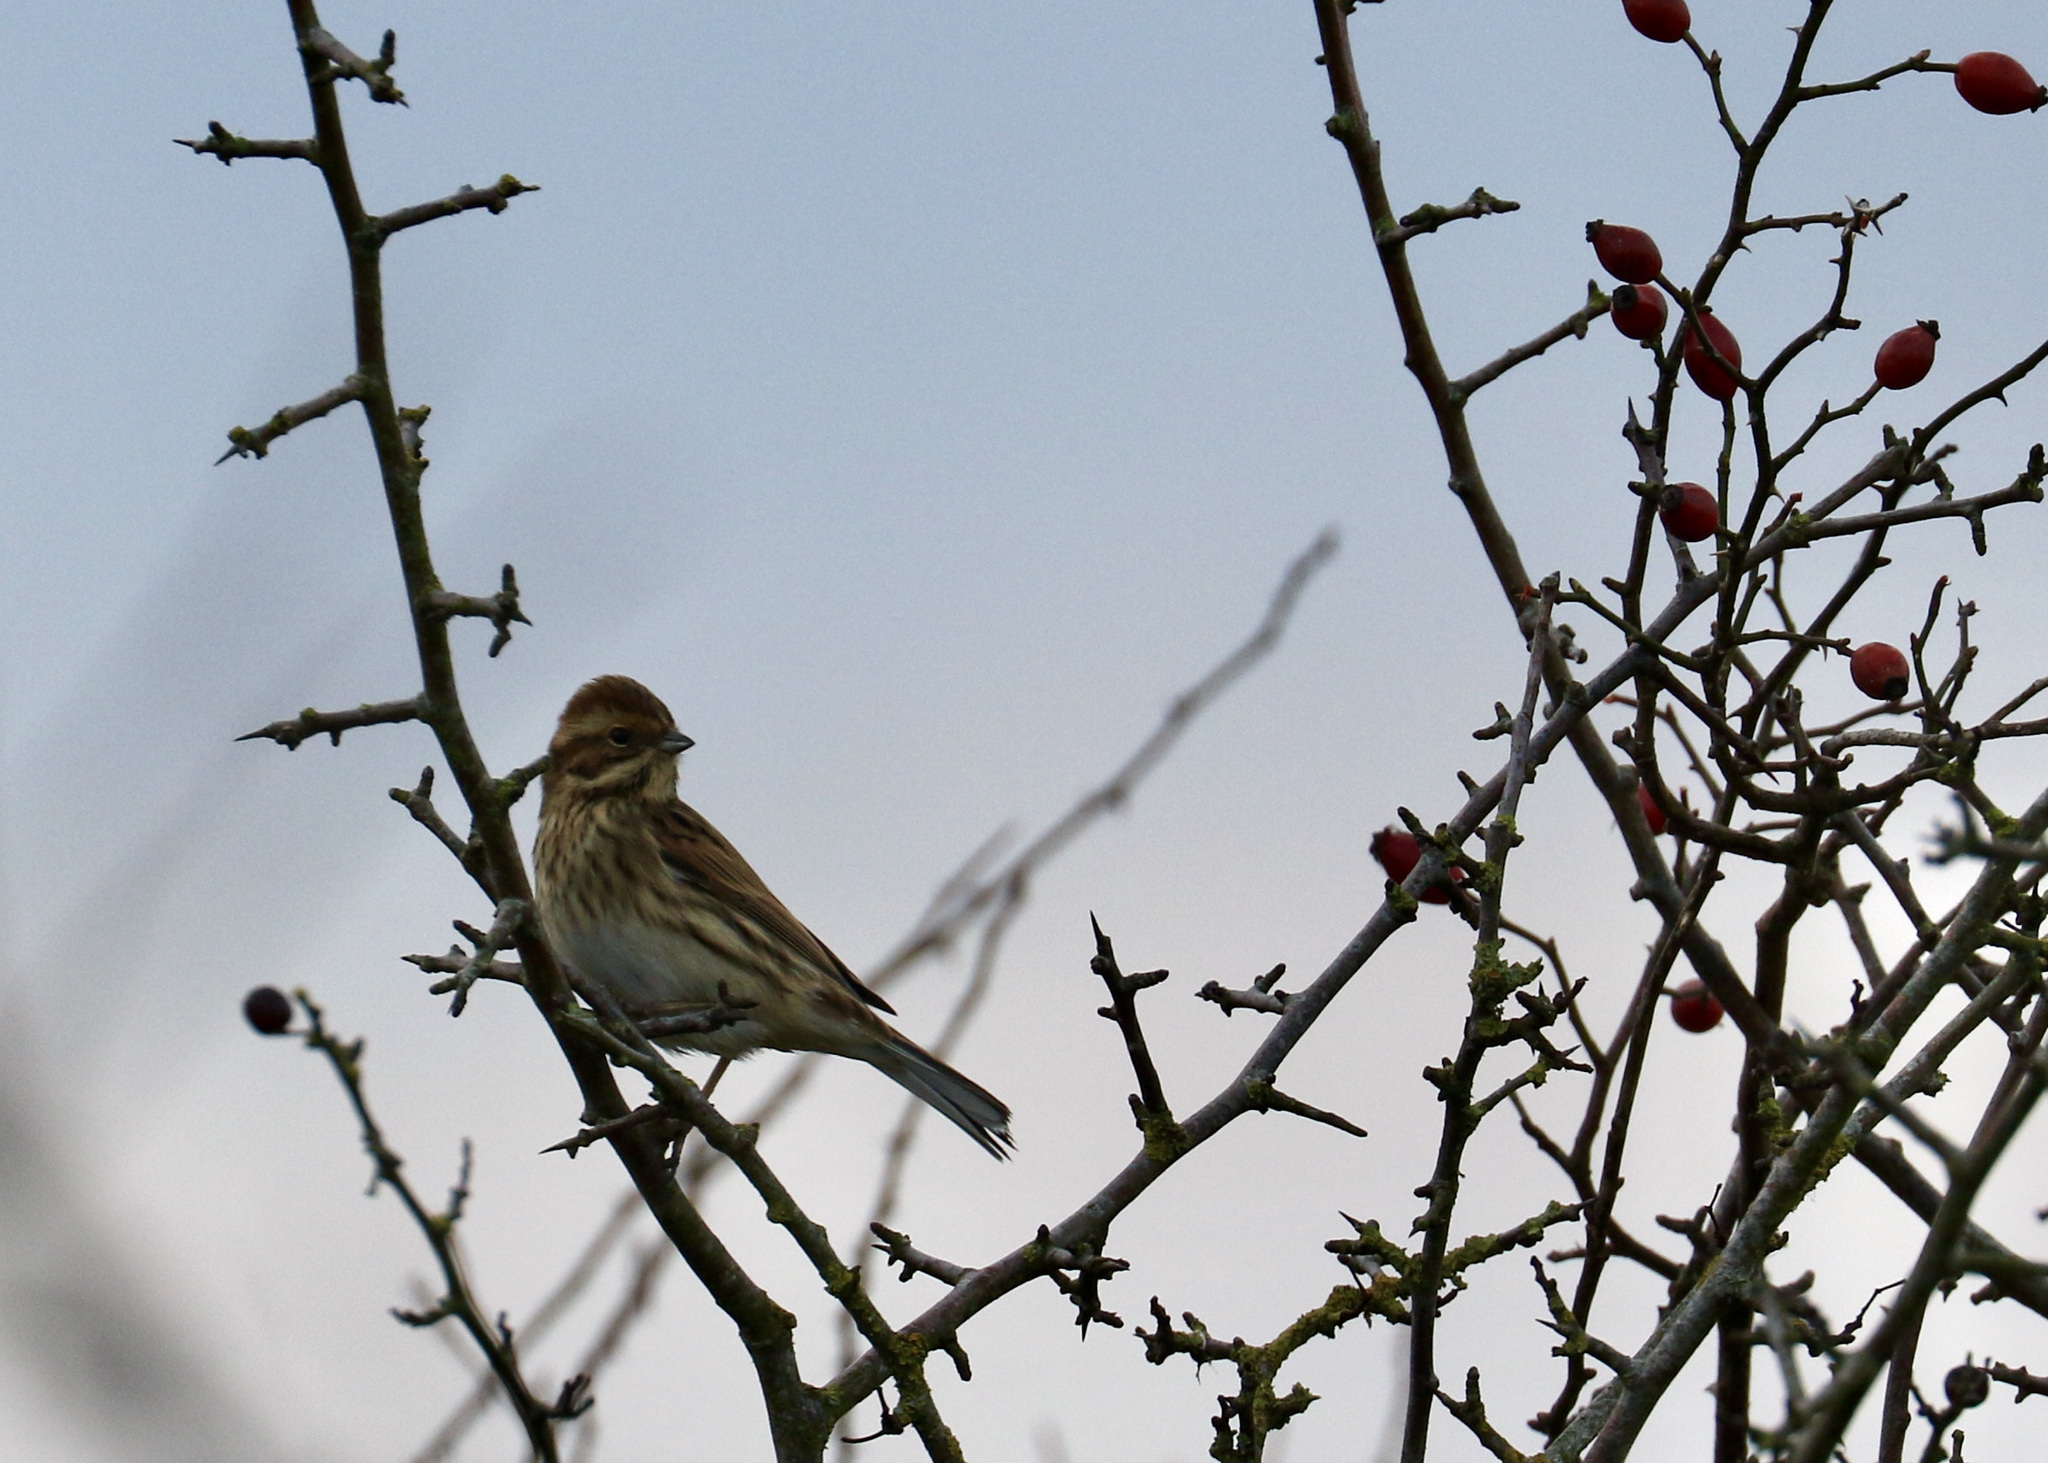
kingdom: Animalia
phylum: Chordata
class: Aves
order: Passeriformes
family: Emberizidae
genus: Emberiza
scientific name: Emberiza schoeniclus
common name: Reed bunting
